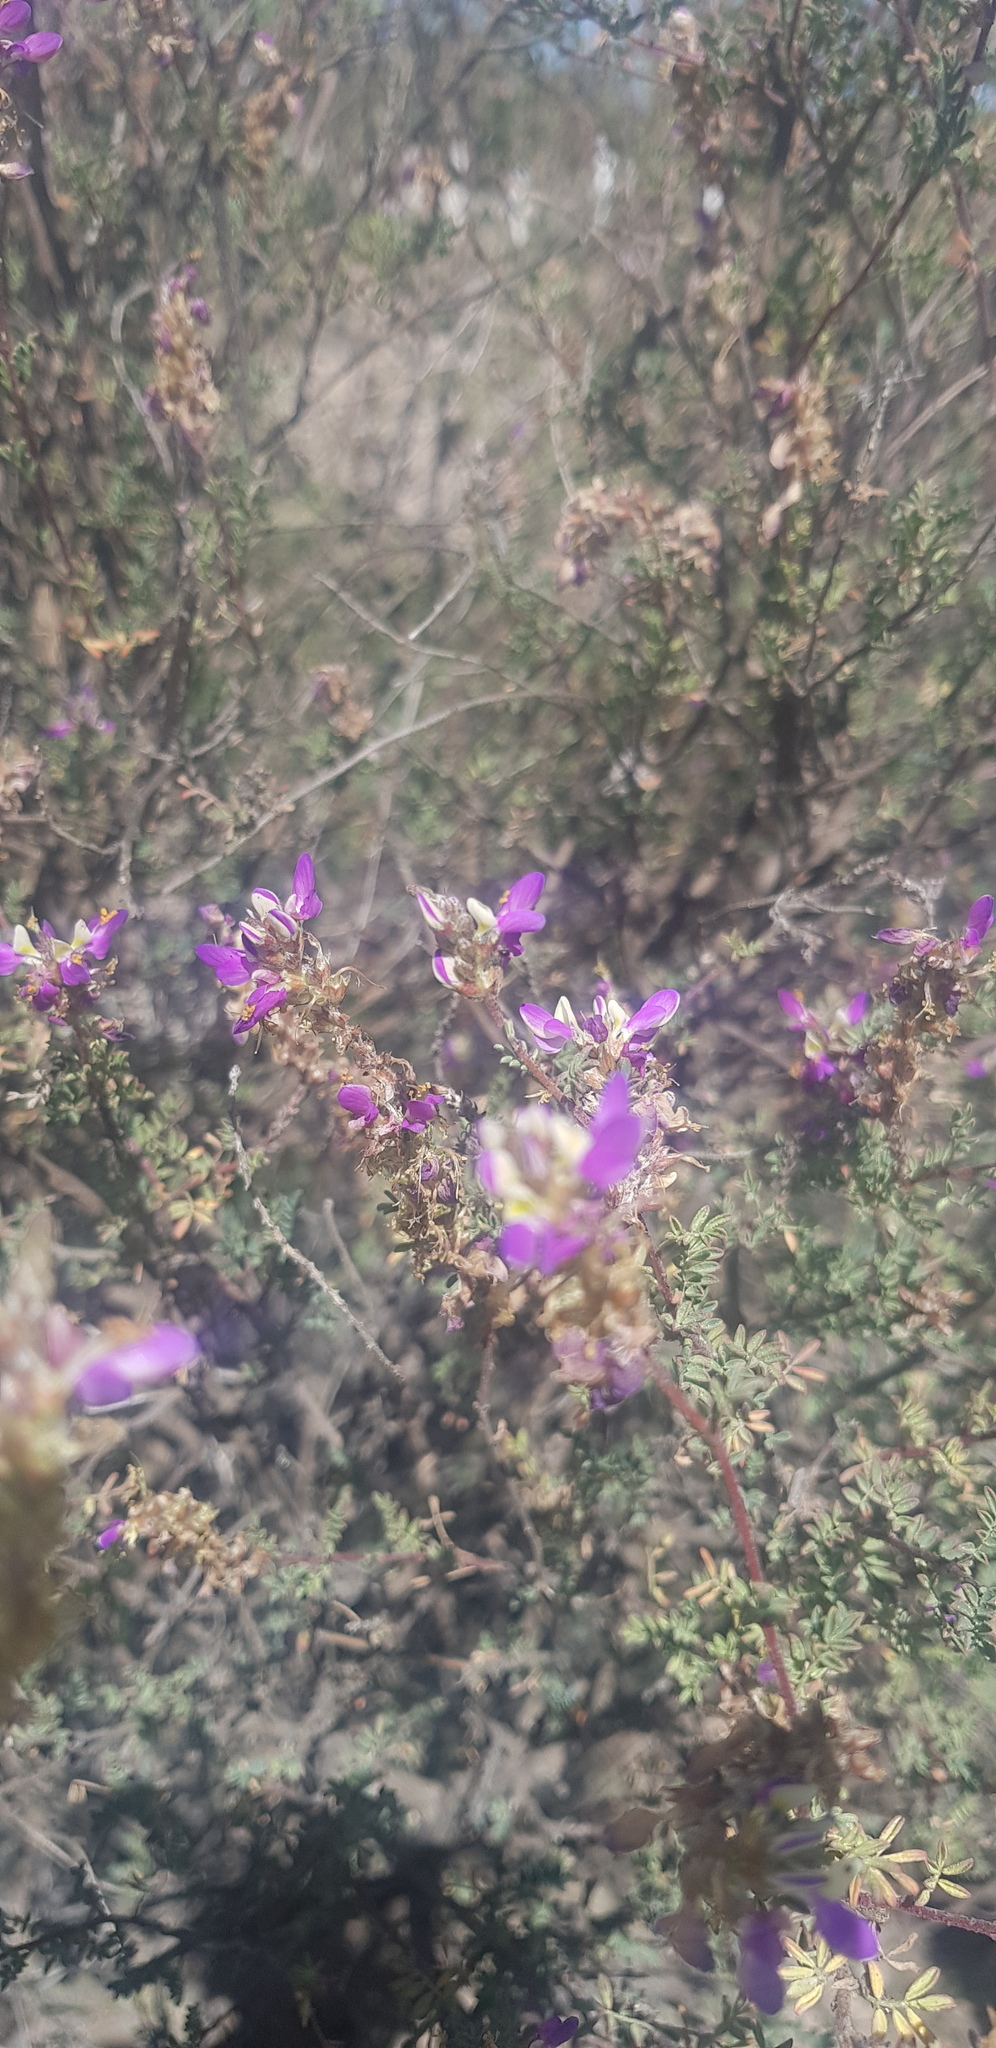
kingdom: Plantae
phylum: Tracheophyta
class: Magnoliopsida
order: Fabales
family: Fabaceae
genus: Dalea
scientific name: Dalea bicolor
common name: Silver prairie-clover
